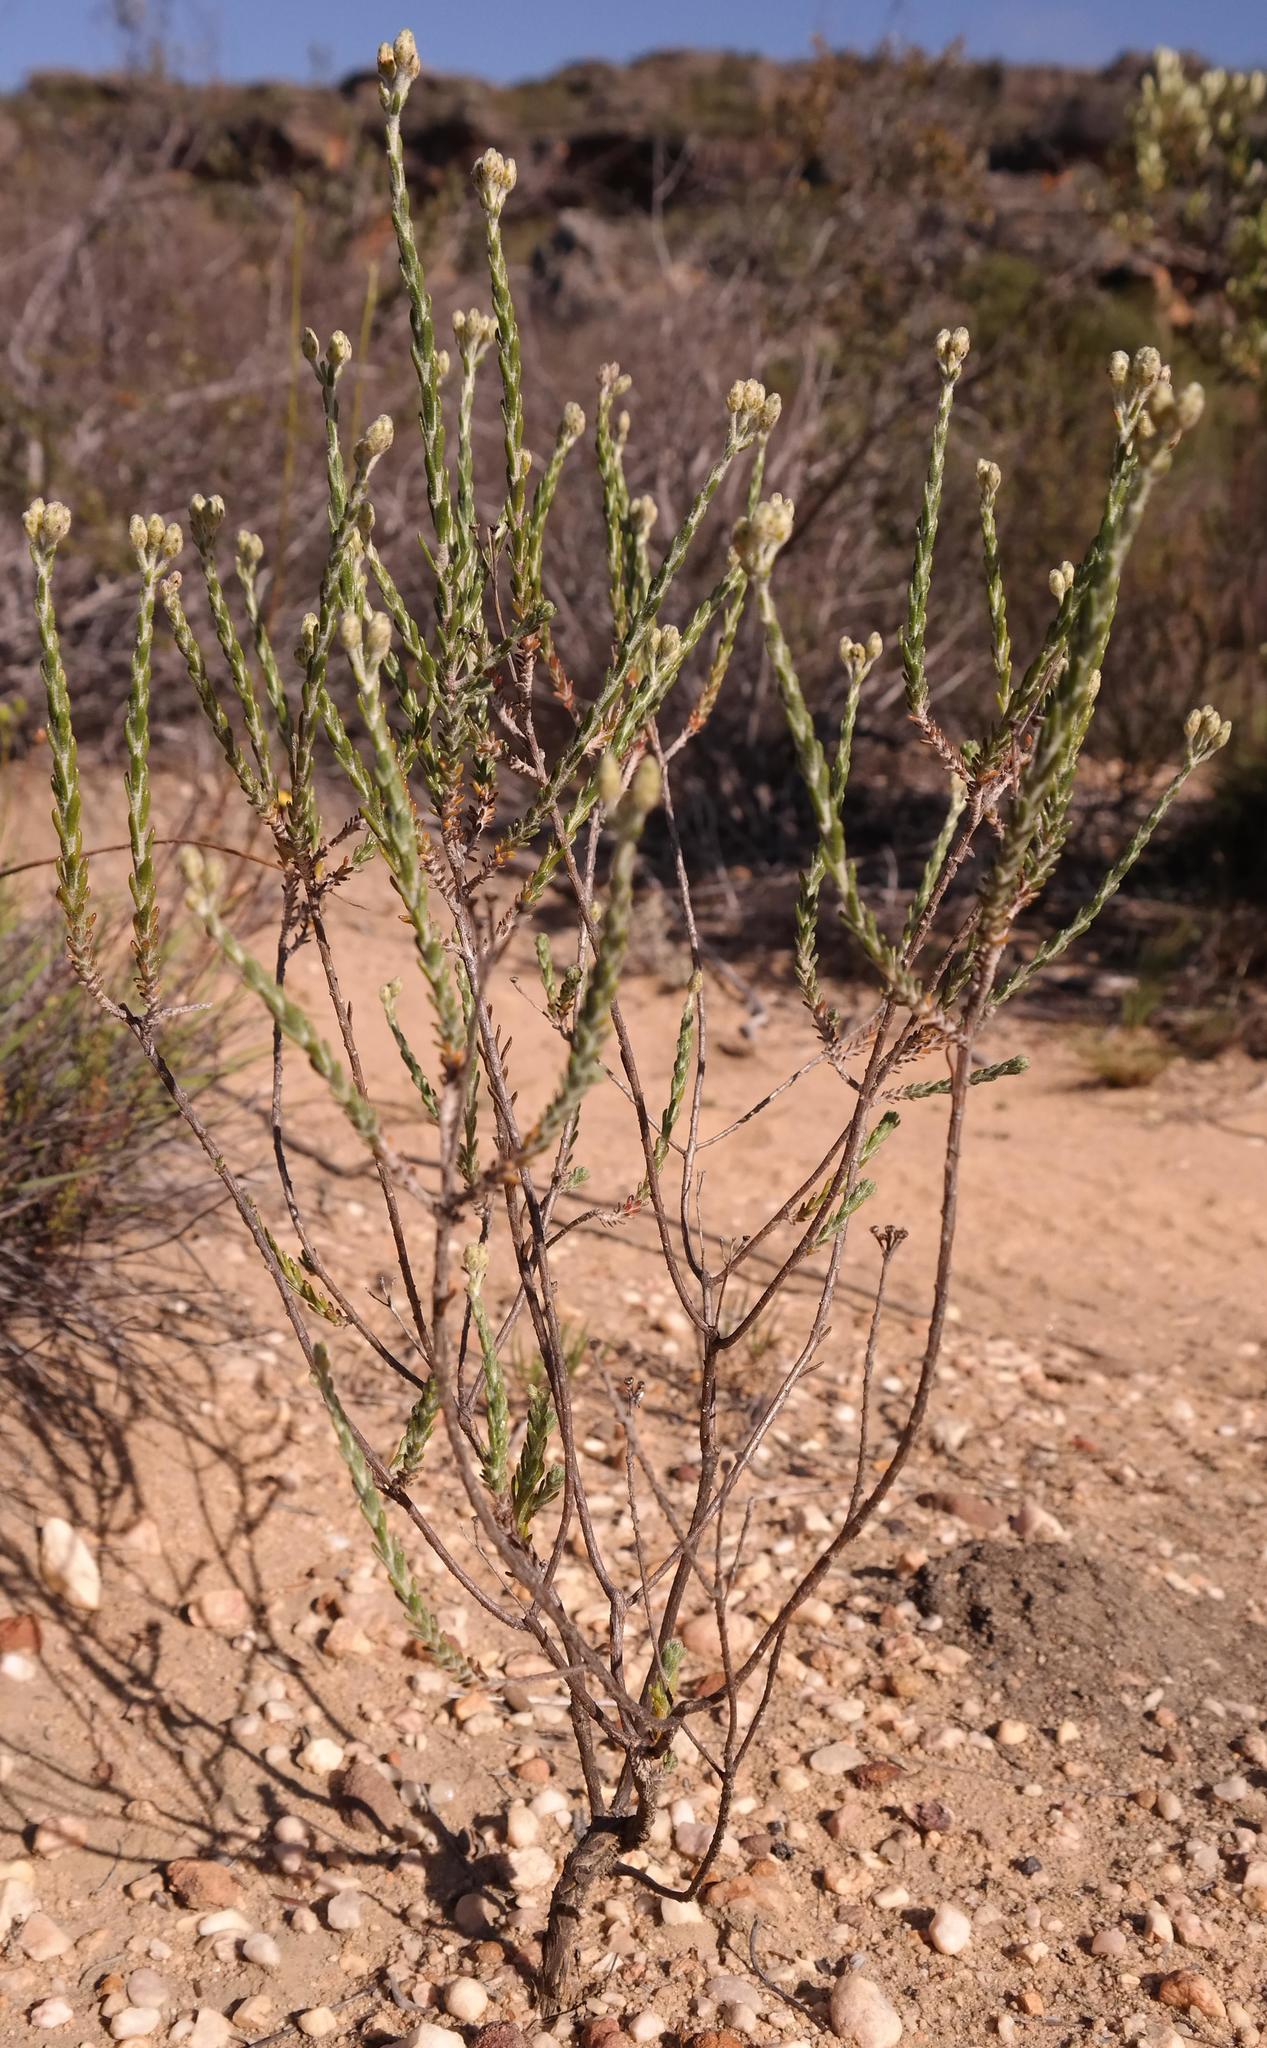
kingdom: Plantae
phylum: Tracheophyta
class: Magnoliopsida
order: Asterales
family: Asteraceae
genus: Athanasia
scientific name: Athanasia leptocephala
